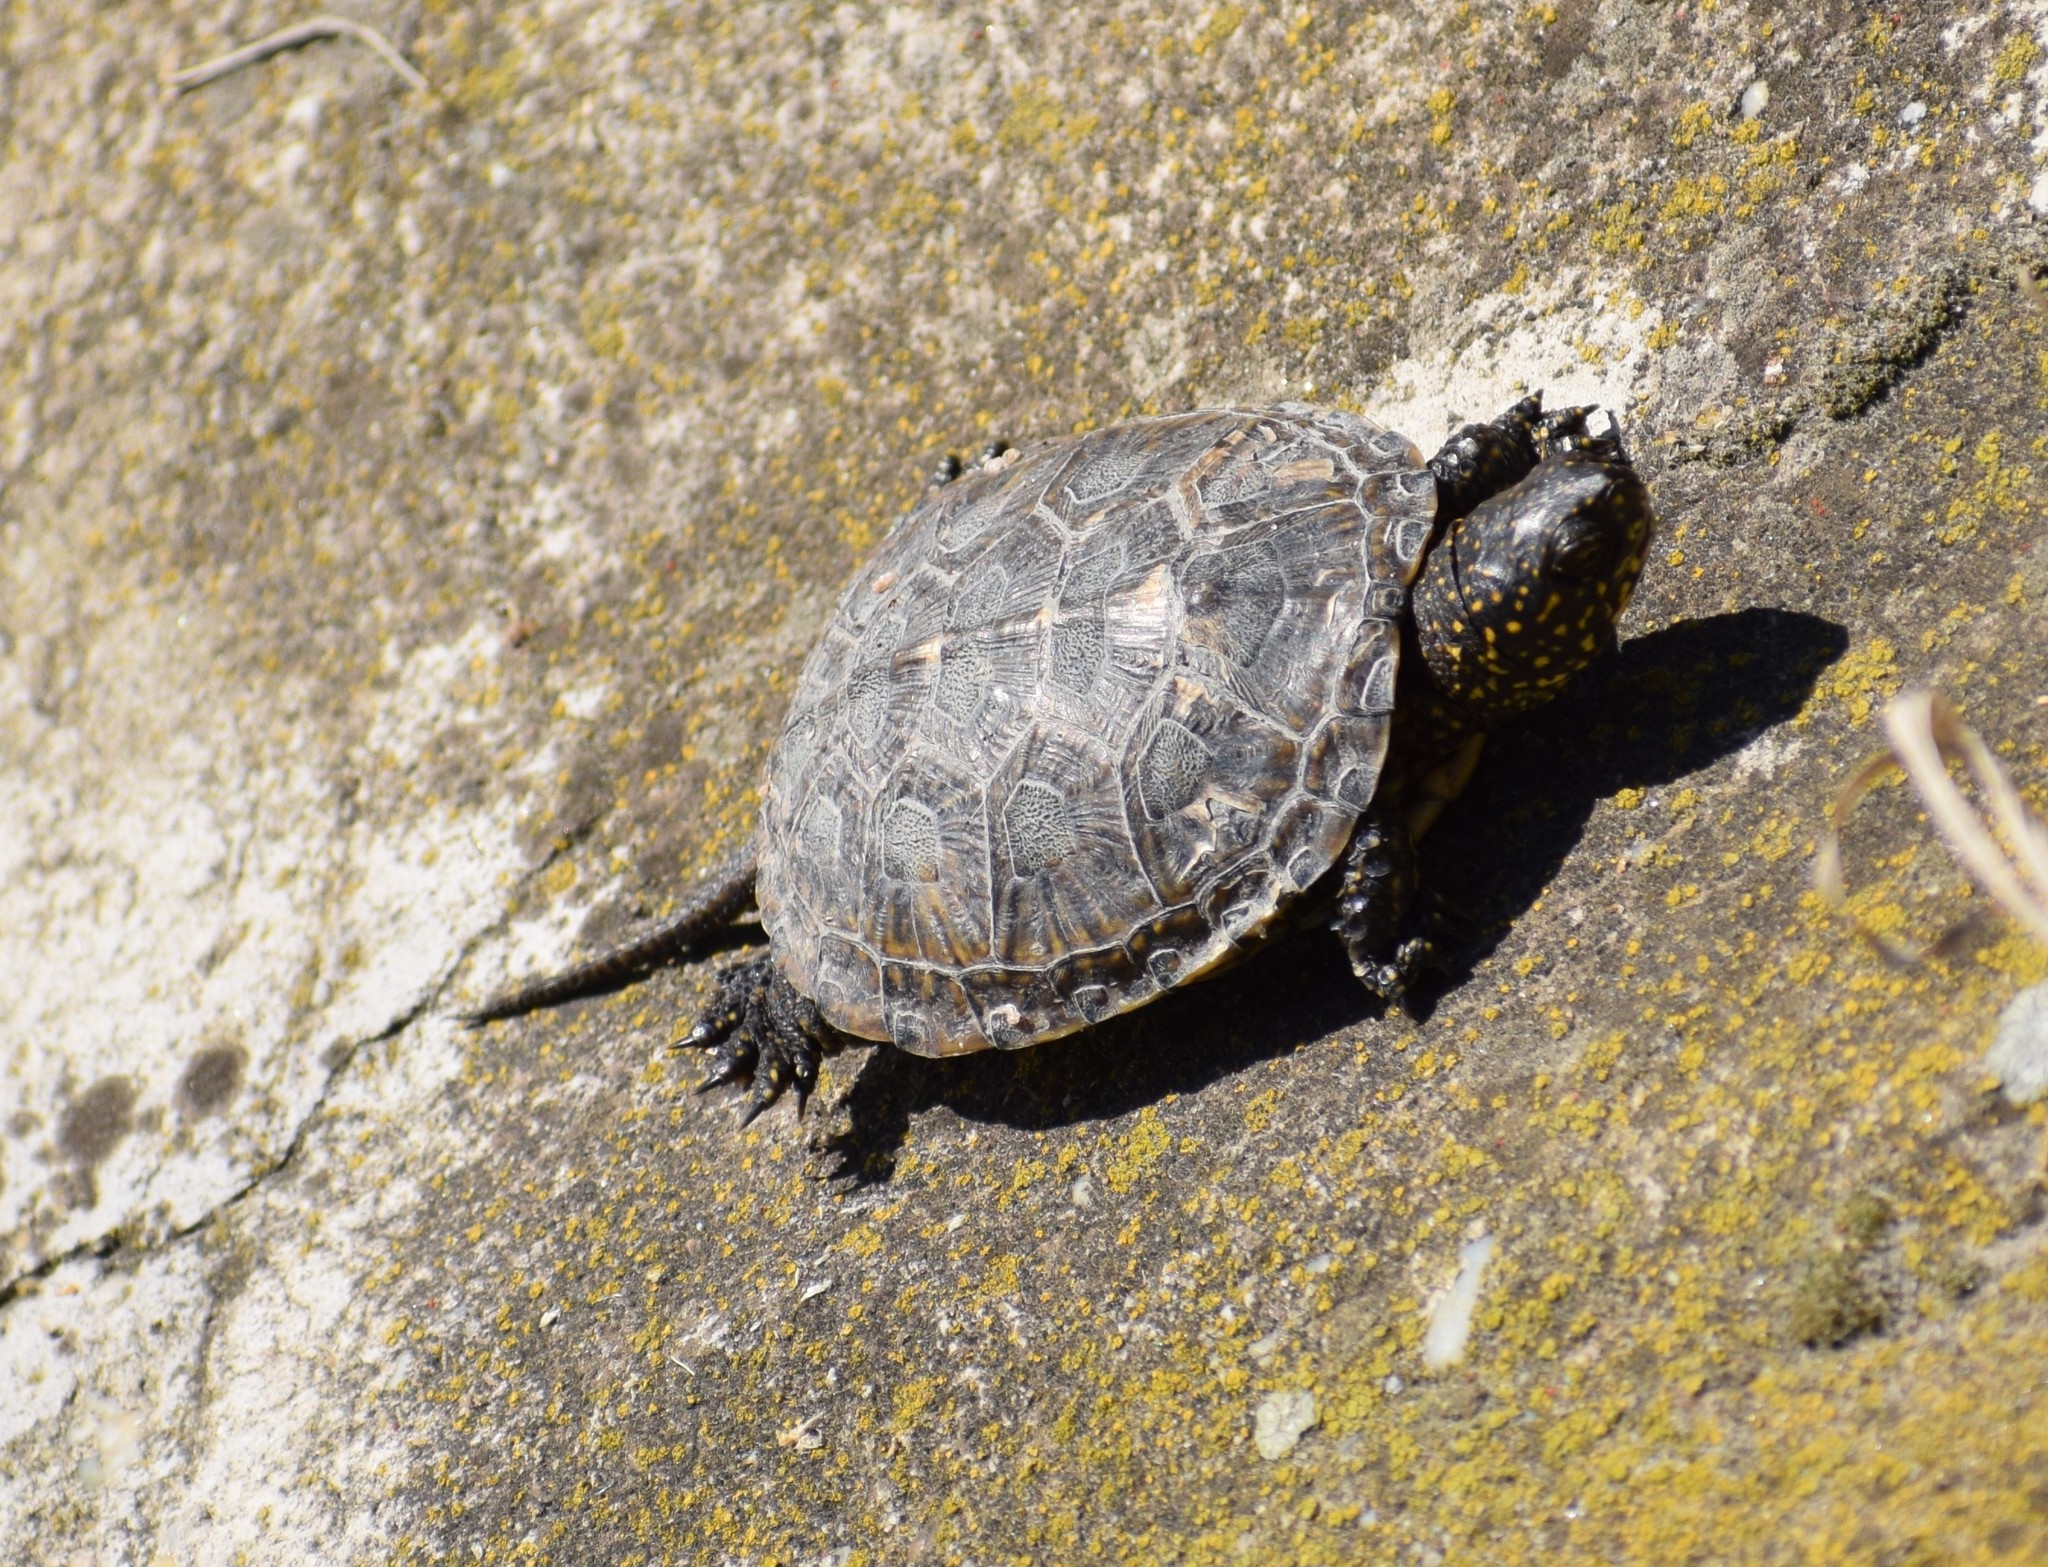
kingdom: Animalia
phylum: Chordata
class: Testudines
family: Emydidae
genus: Emys
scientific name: Emys orbicularis
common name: European pond turtle
